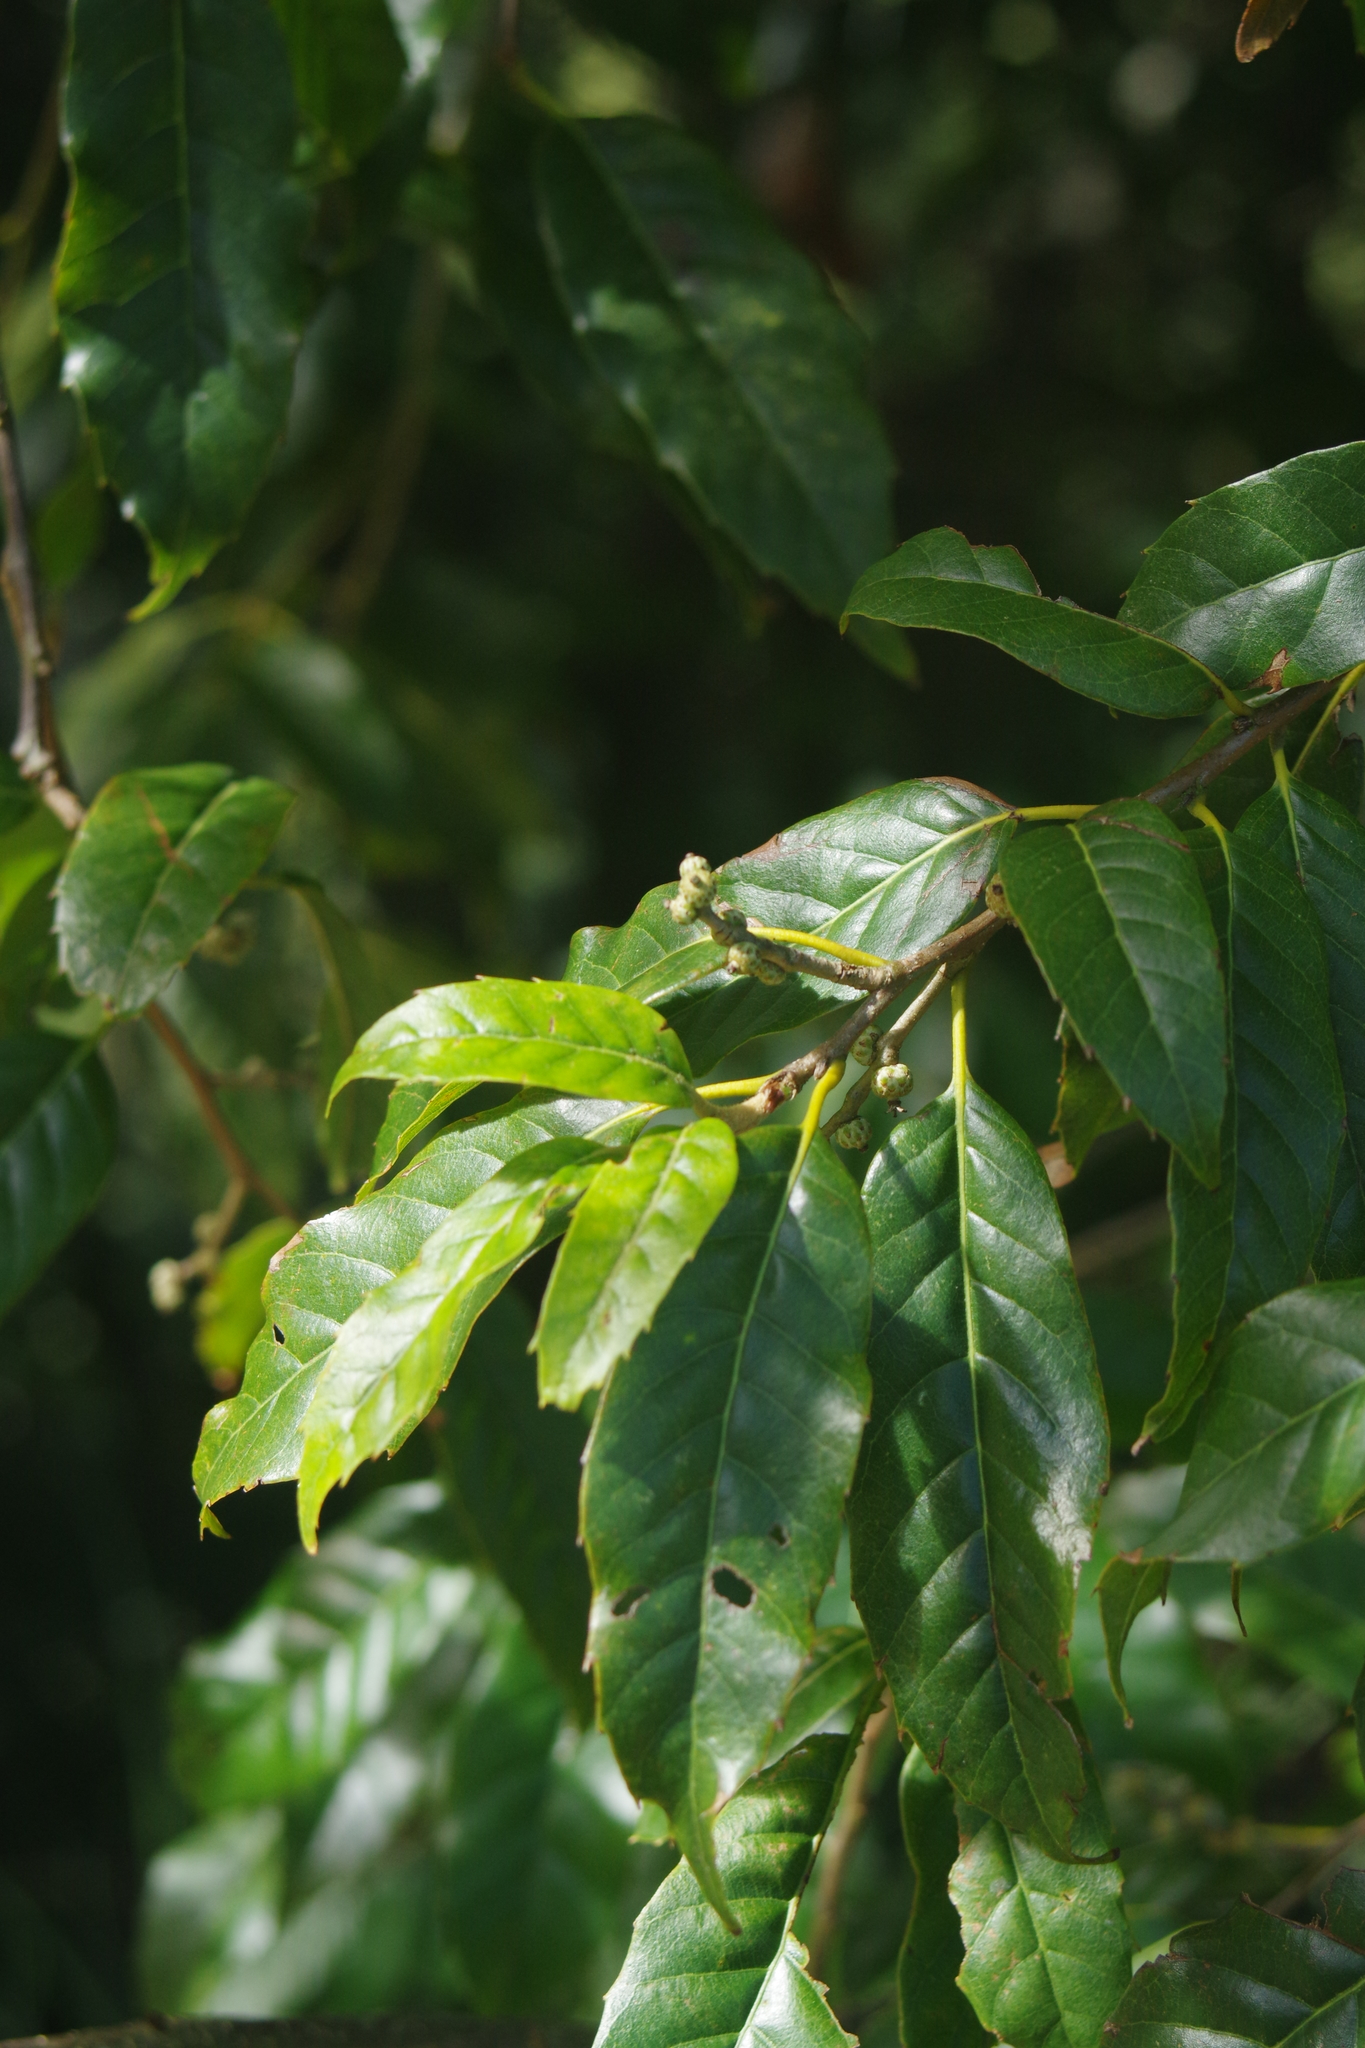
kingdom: Plantae
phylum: Tracheophyta
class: Magnoliopsida
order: Fagales
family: Fagaceae
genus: Quercus
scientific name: Quercus tatakaensis
